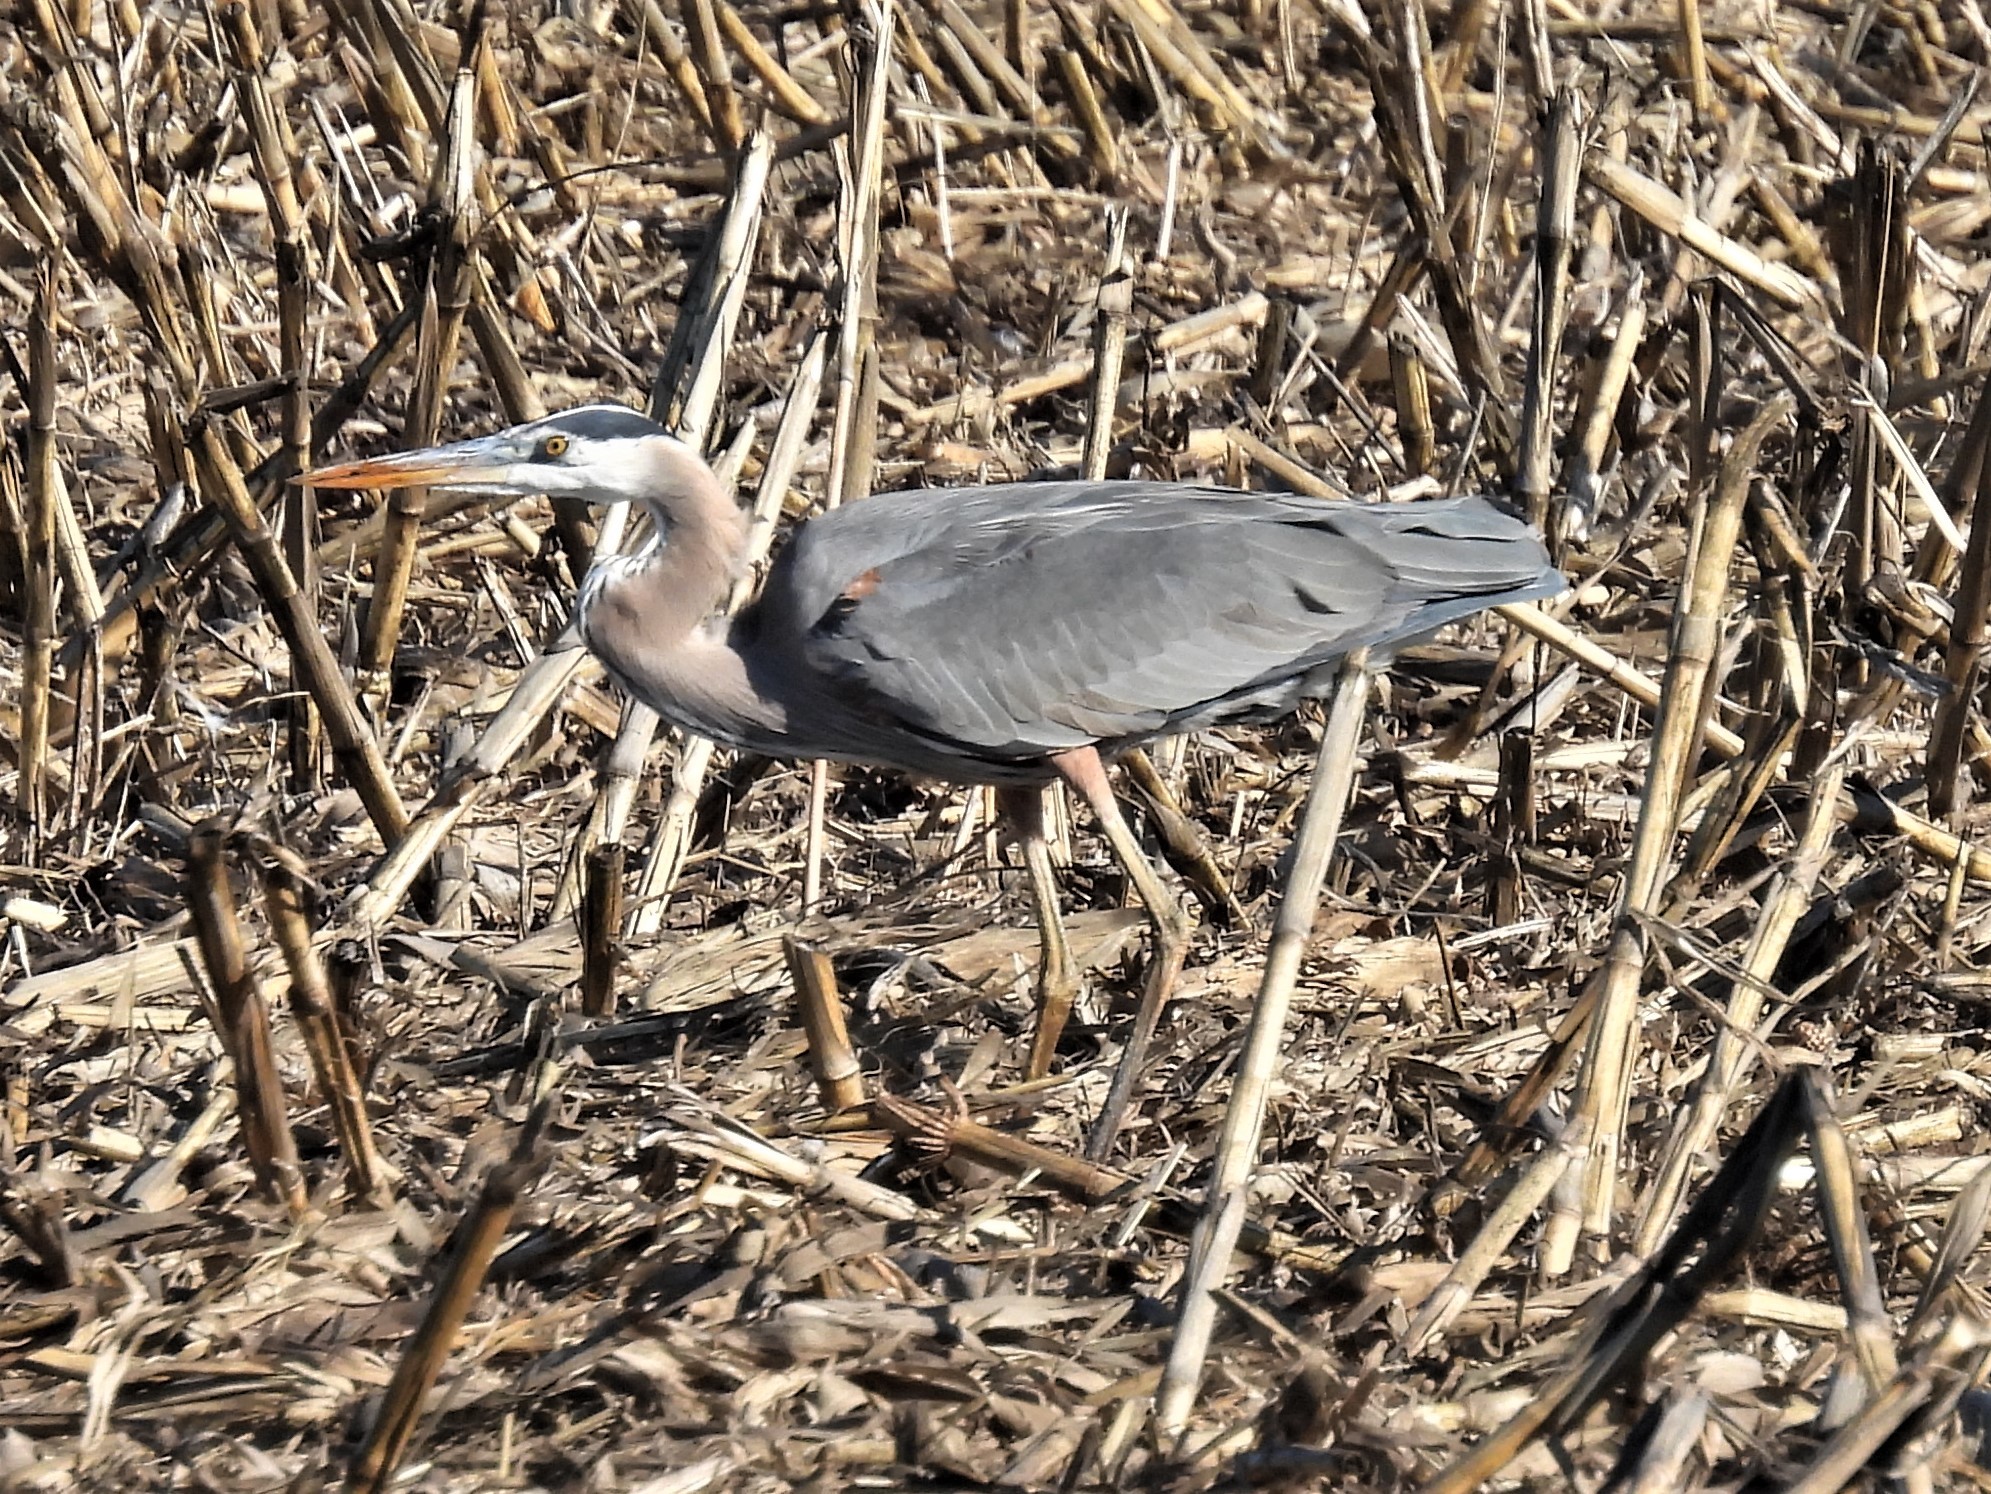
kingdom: Animalia
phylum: Chordata
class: Aves
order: Pelecaniformes
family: Ardeidae
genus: Ardea
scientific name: Ardea herodias
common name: Great blue heron
